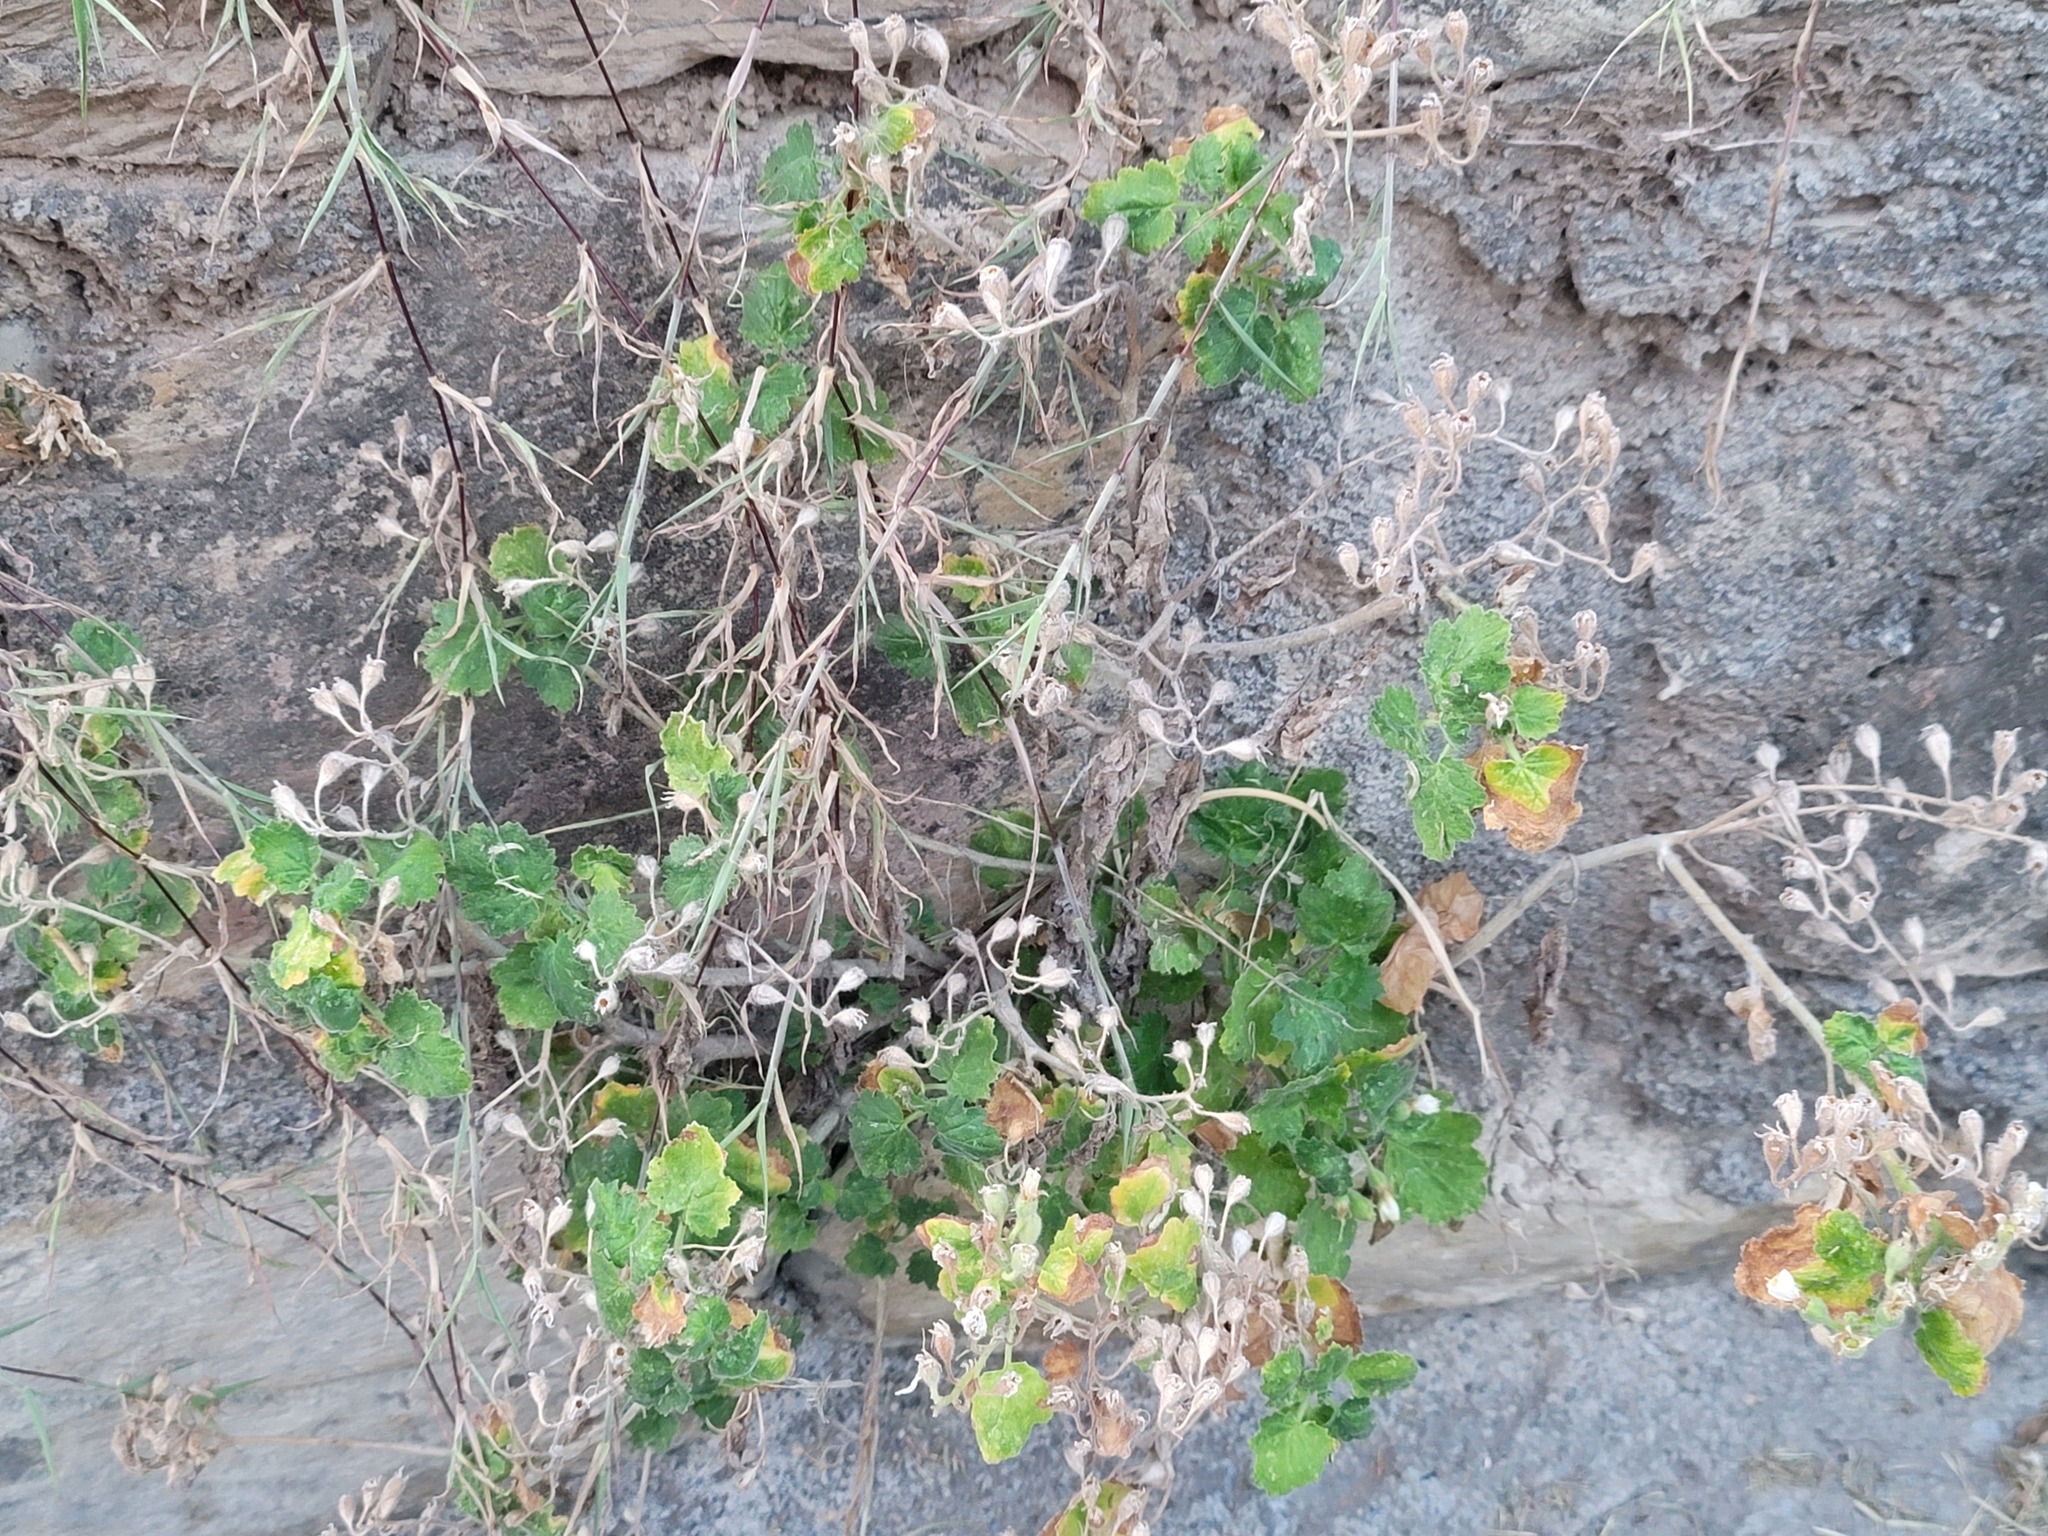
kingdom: Plantae
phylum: Tracheophyta
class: Magnoliopsida
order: Cornales
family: Loasaceae
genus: Eucnide
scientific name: Eucnide lobata
